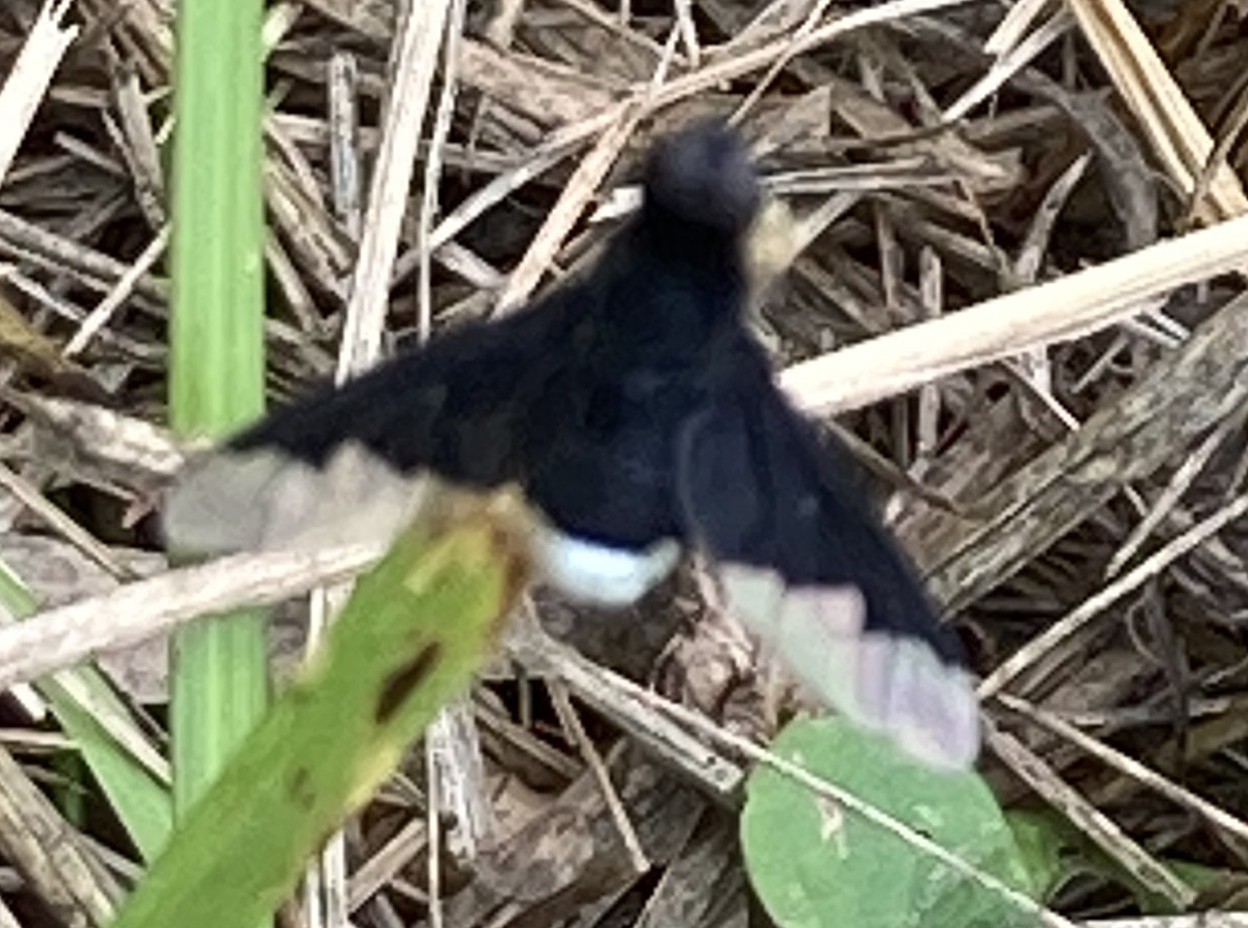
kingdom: Animalia
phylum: Arthropoda
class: Insecta
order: Diptera
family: Bombyliidae
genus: Anthrax
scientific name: Anthrax analis
